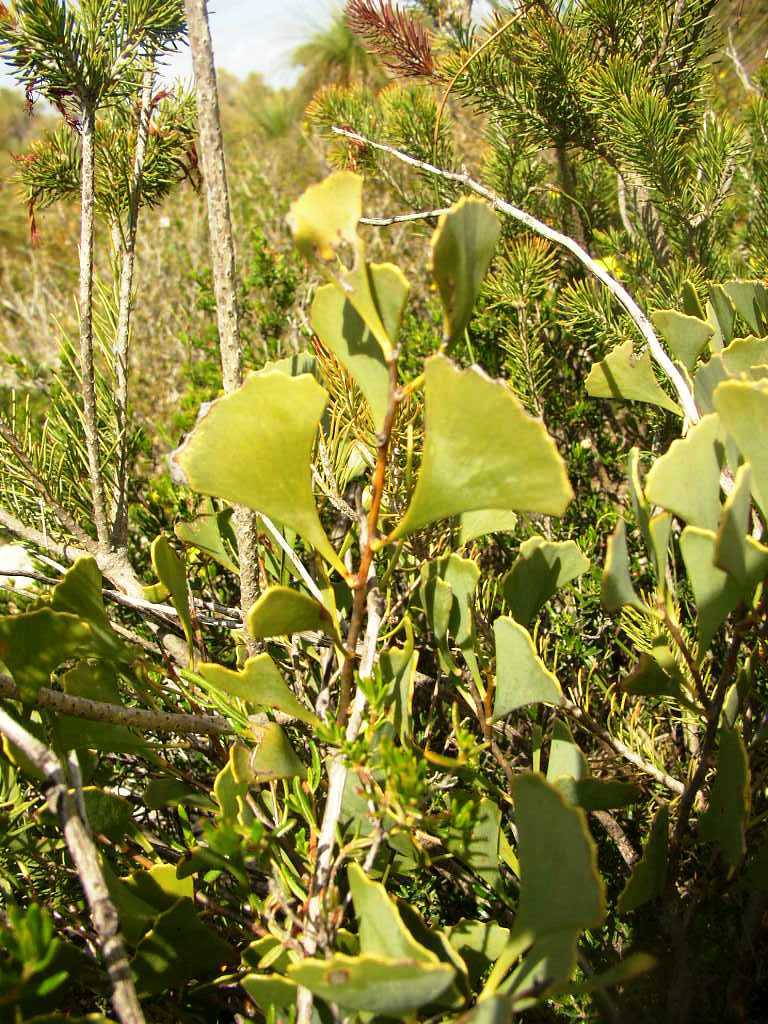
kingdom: Plantae
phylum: Tracheophyta
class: Magnoliopsida
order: Proteales
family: Proteaceae
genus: Hakea
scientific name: Hakea flabellifolia
